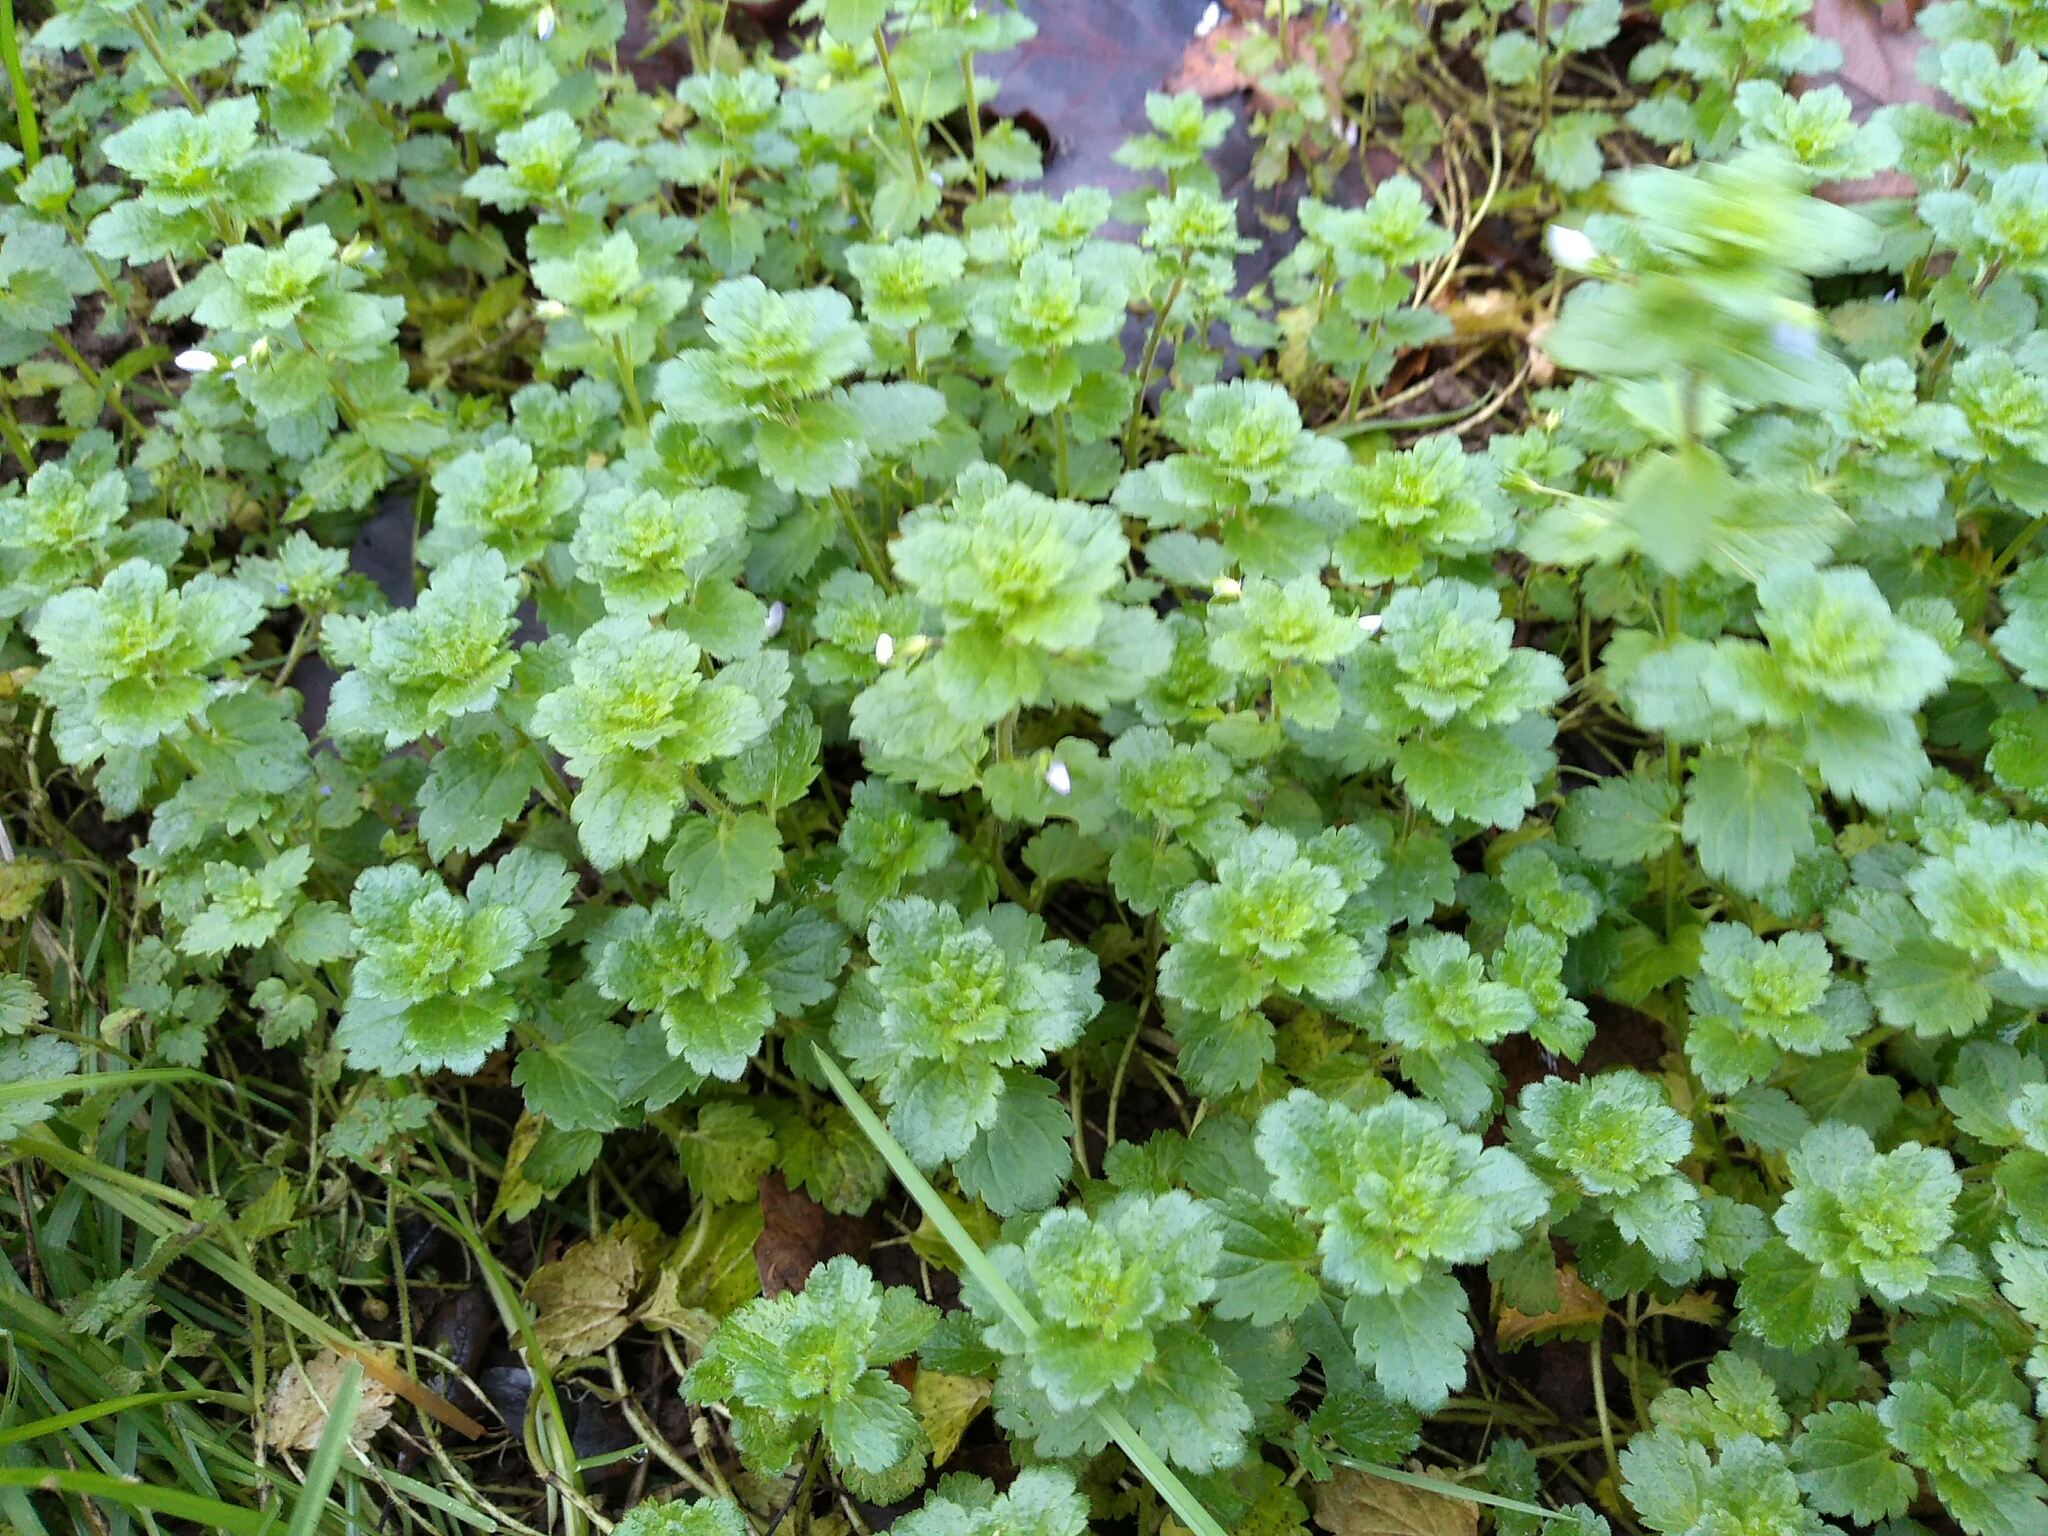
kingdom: Plantae
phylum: Tracheophyta
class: Magnoliopsida
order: Lamiales
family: Plantaginaceae
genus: Veronica
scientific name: Veronica persica
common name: Common field-speedwell
